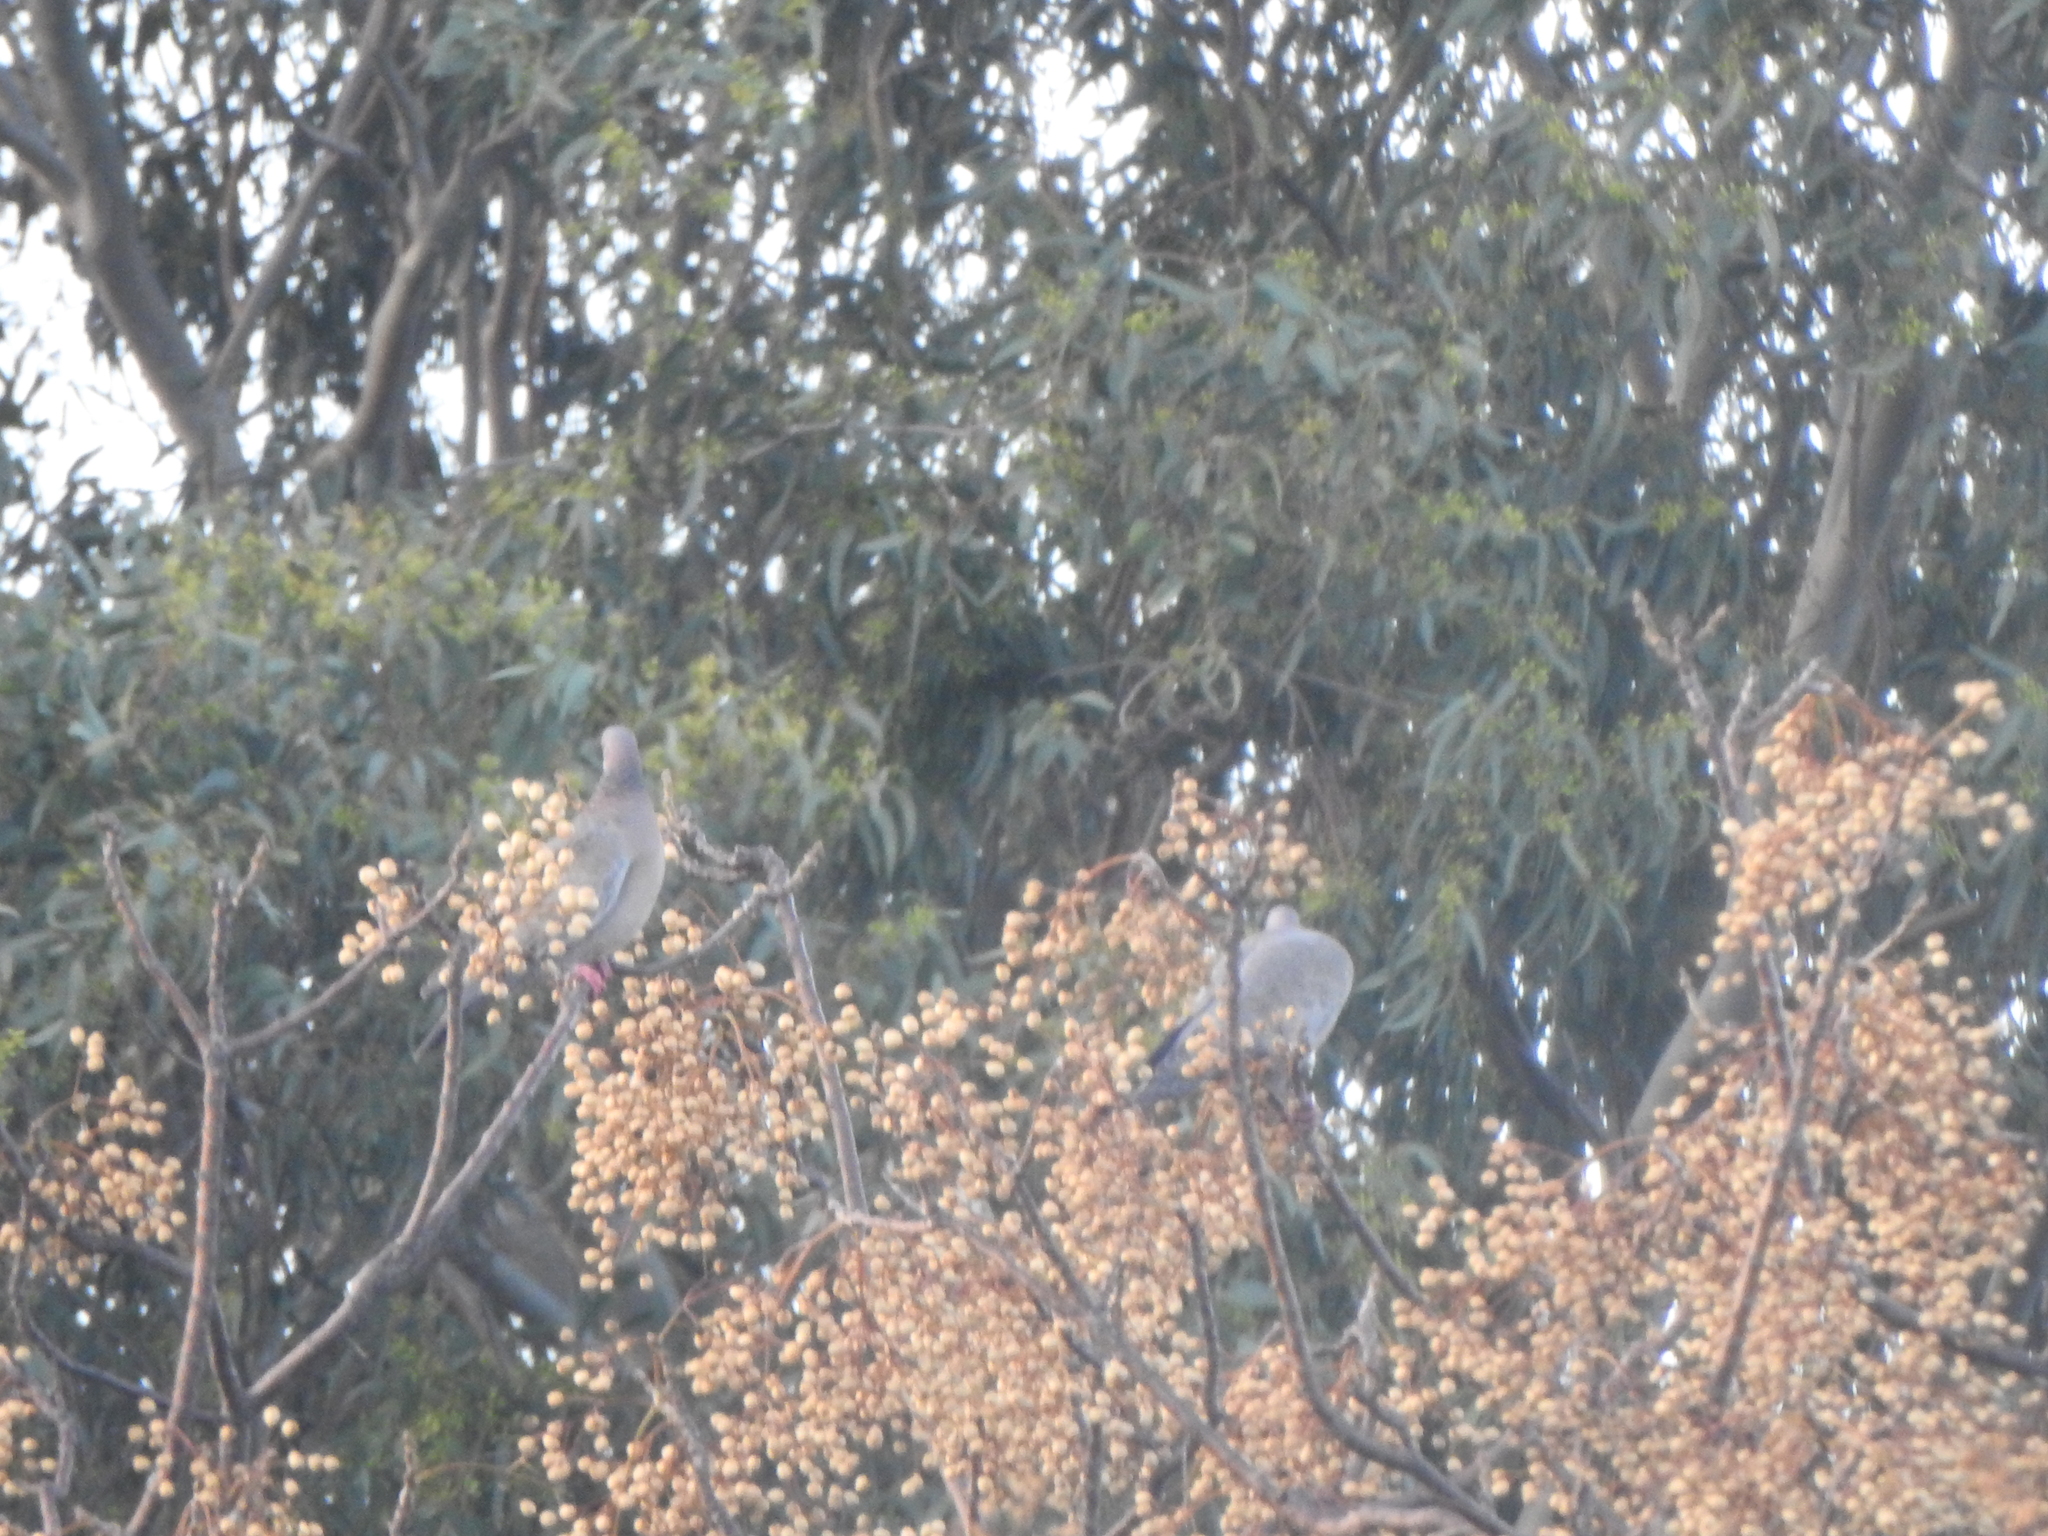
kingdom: Animalia
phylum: Chordata
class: Aves
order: Columbiformes
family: Columbidae
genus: Patagioenas
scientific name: Patagioenas picazuro
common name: Picazuro pigeon
